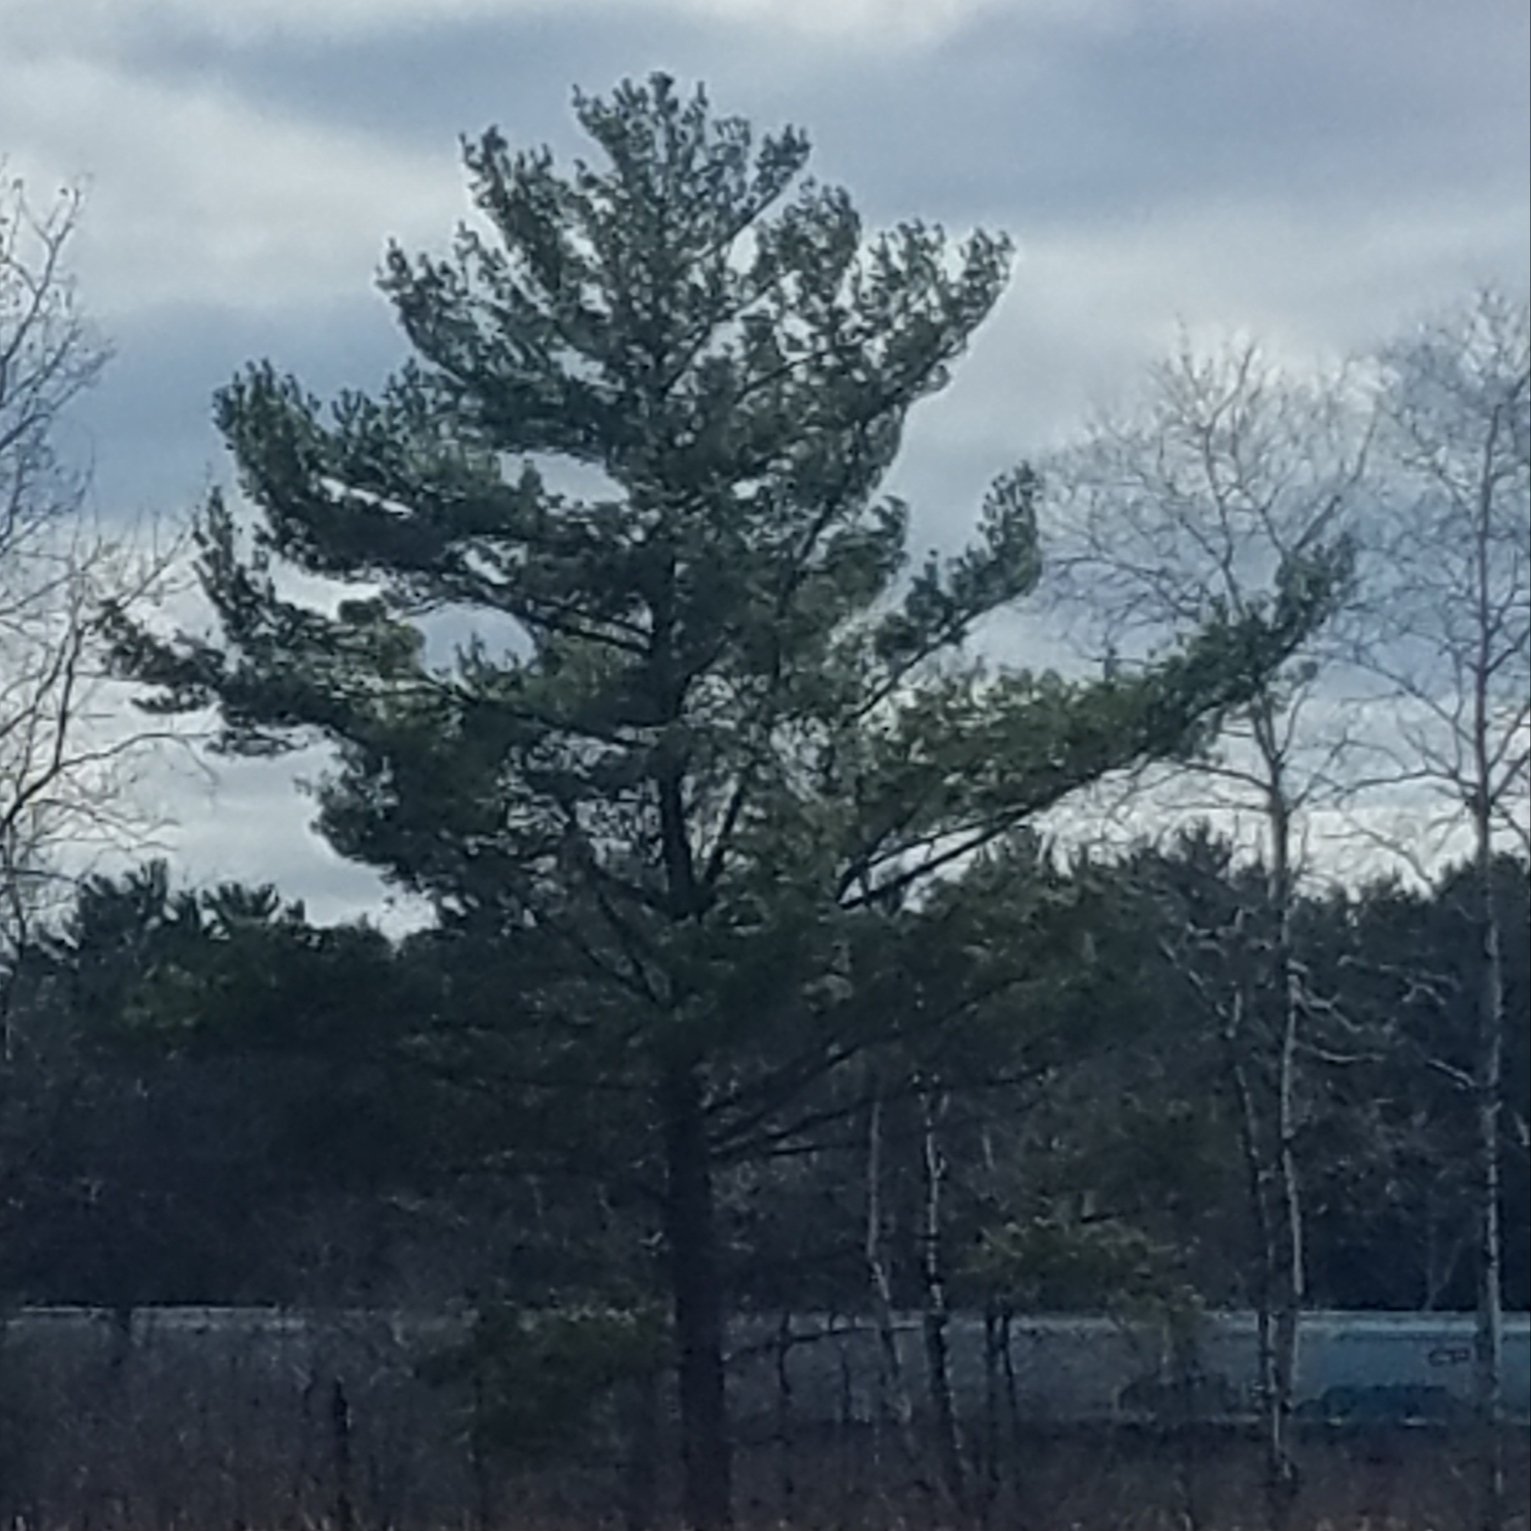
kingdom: Plantae
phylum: Tracheophyta
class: Pinopsida
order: Pinales
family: Pinaceae
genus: Pinus
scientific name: Pinus strobus
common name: Weymouth pine
